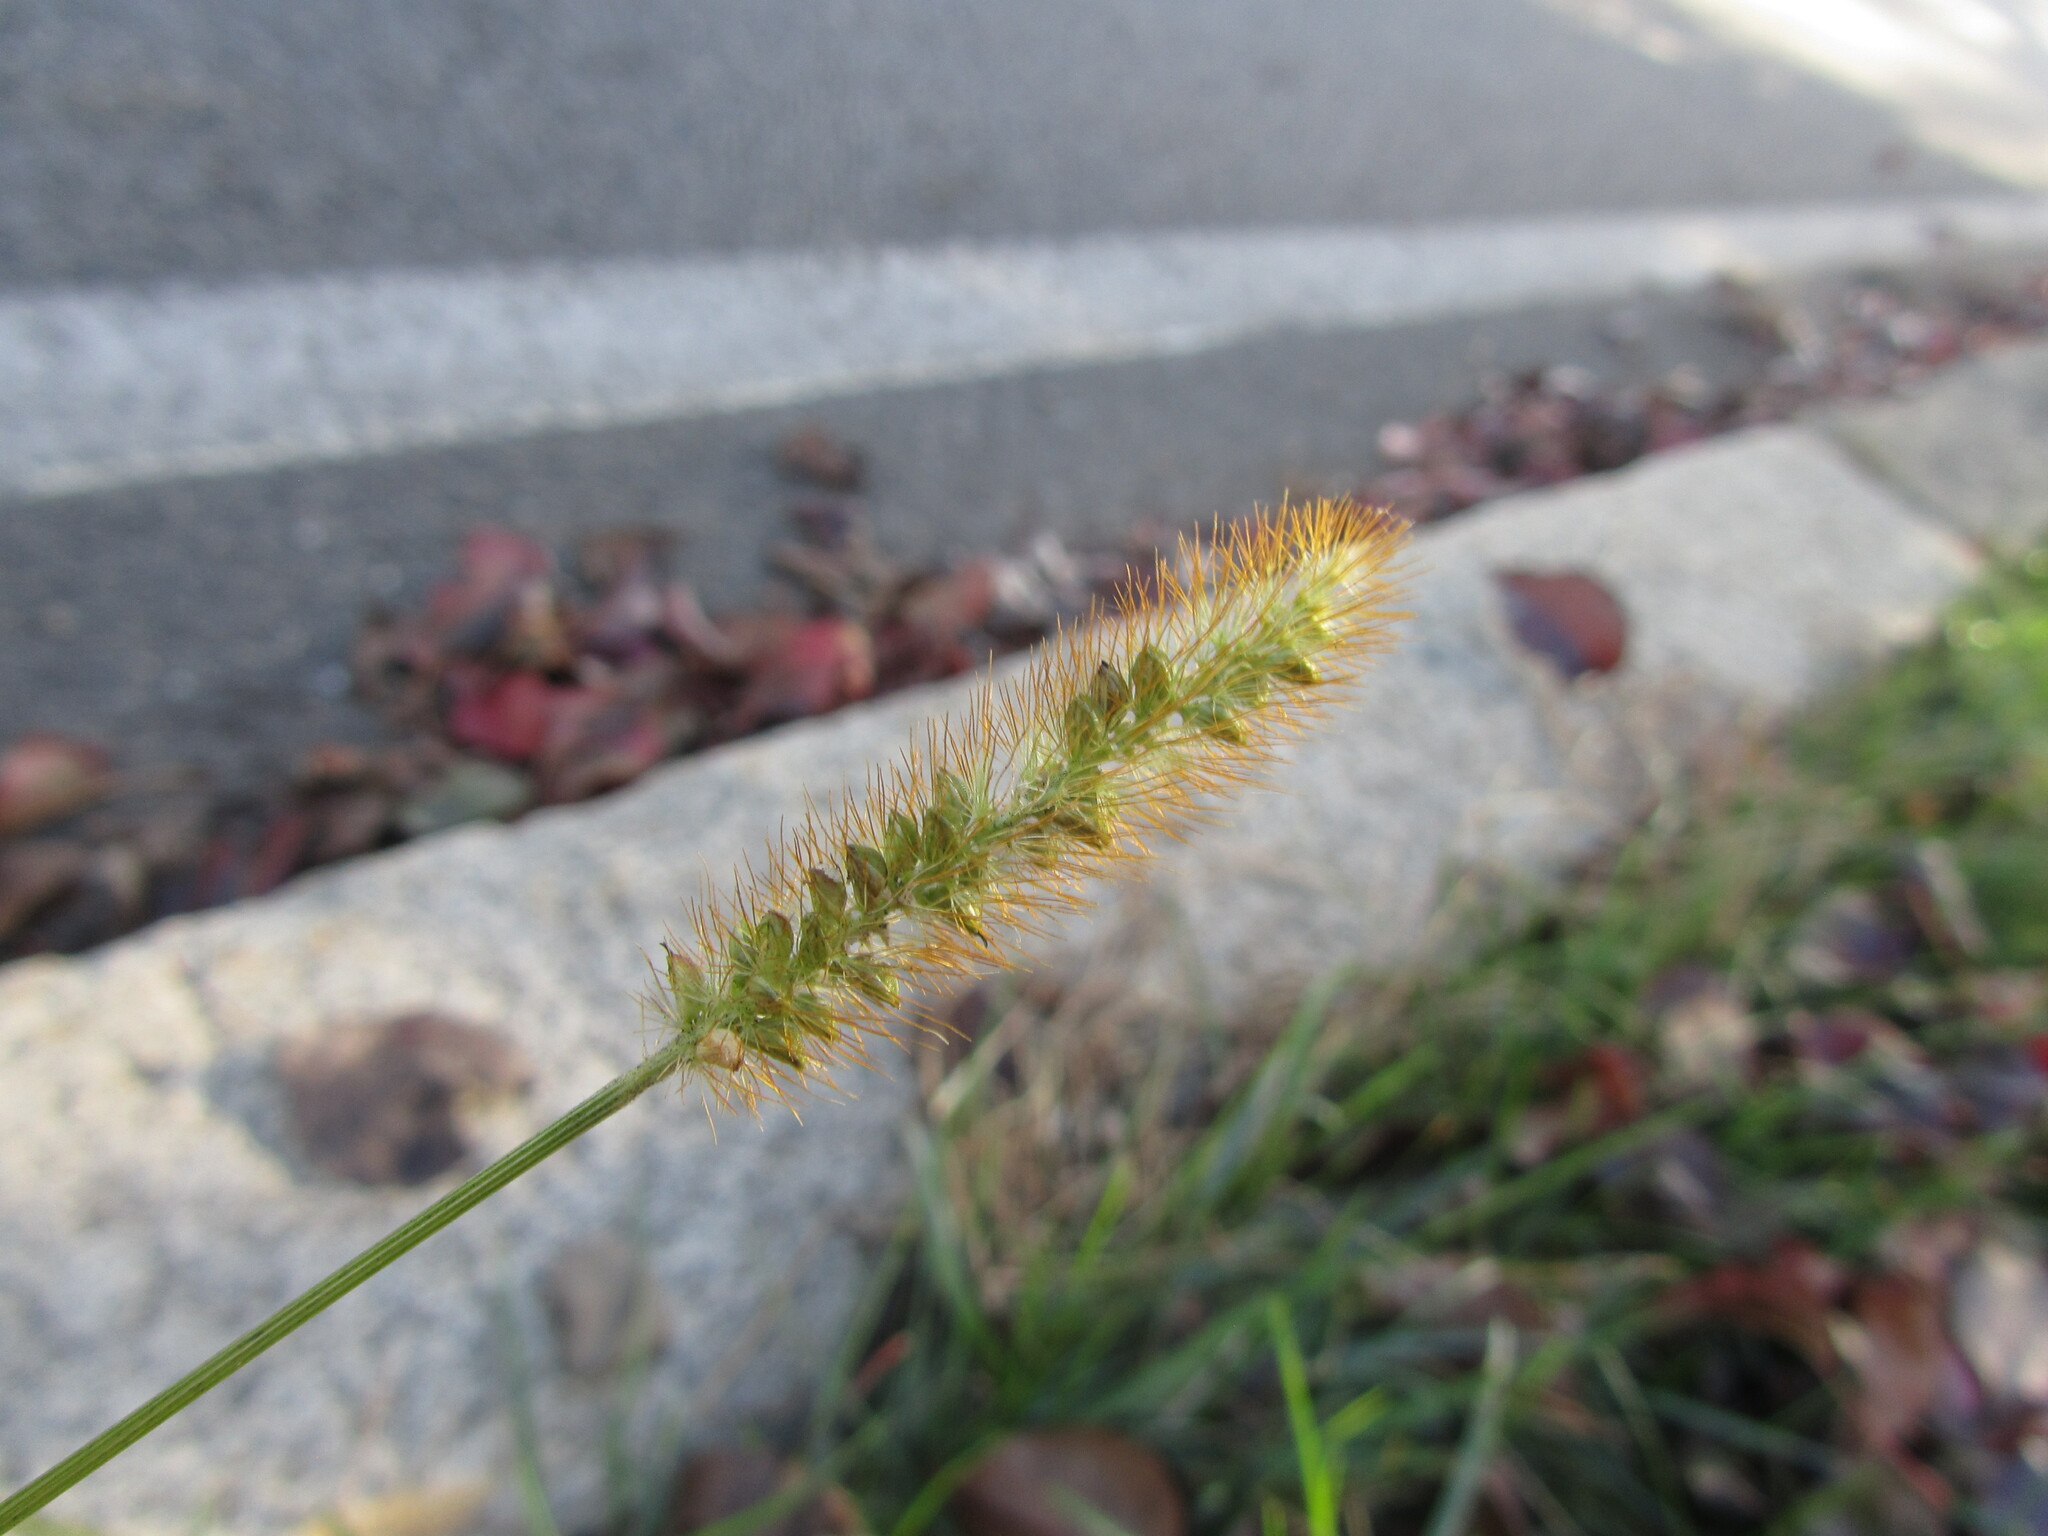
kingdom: Plantae
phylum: Tracheophyta
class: Liliopsida
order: Poales
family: Poaceae
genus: Setaria
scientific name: Setaria pumila
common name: Yellow bristle-grass
